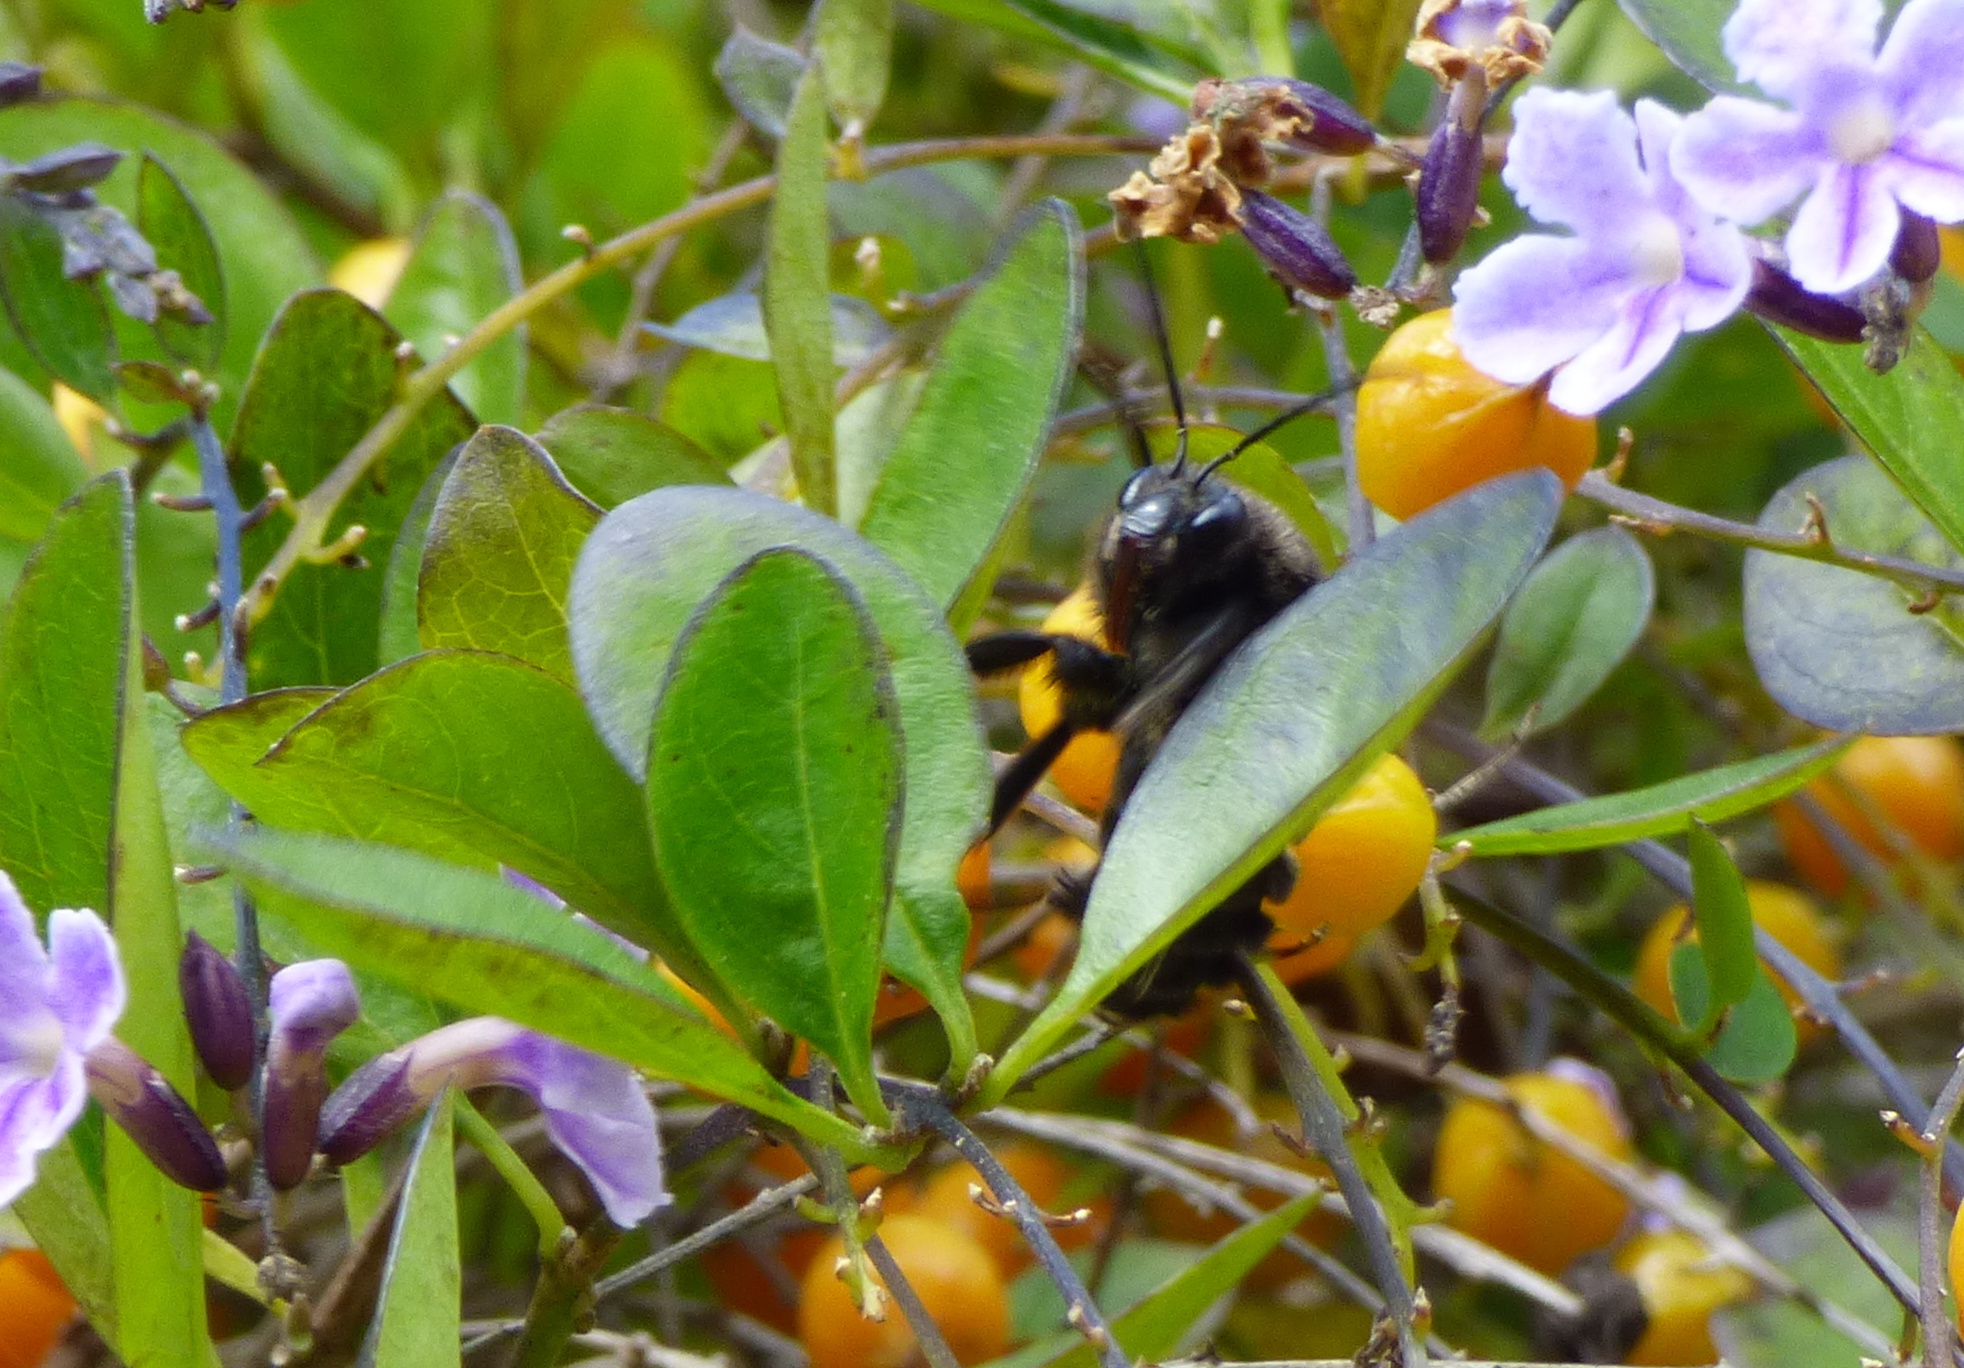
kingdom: Animalia
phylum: Arthropoda
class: Insecta
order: Hymenoptera
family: Apidae
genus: Bombus
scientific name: Bombus pauloensis
